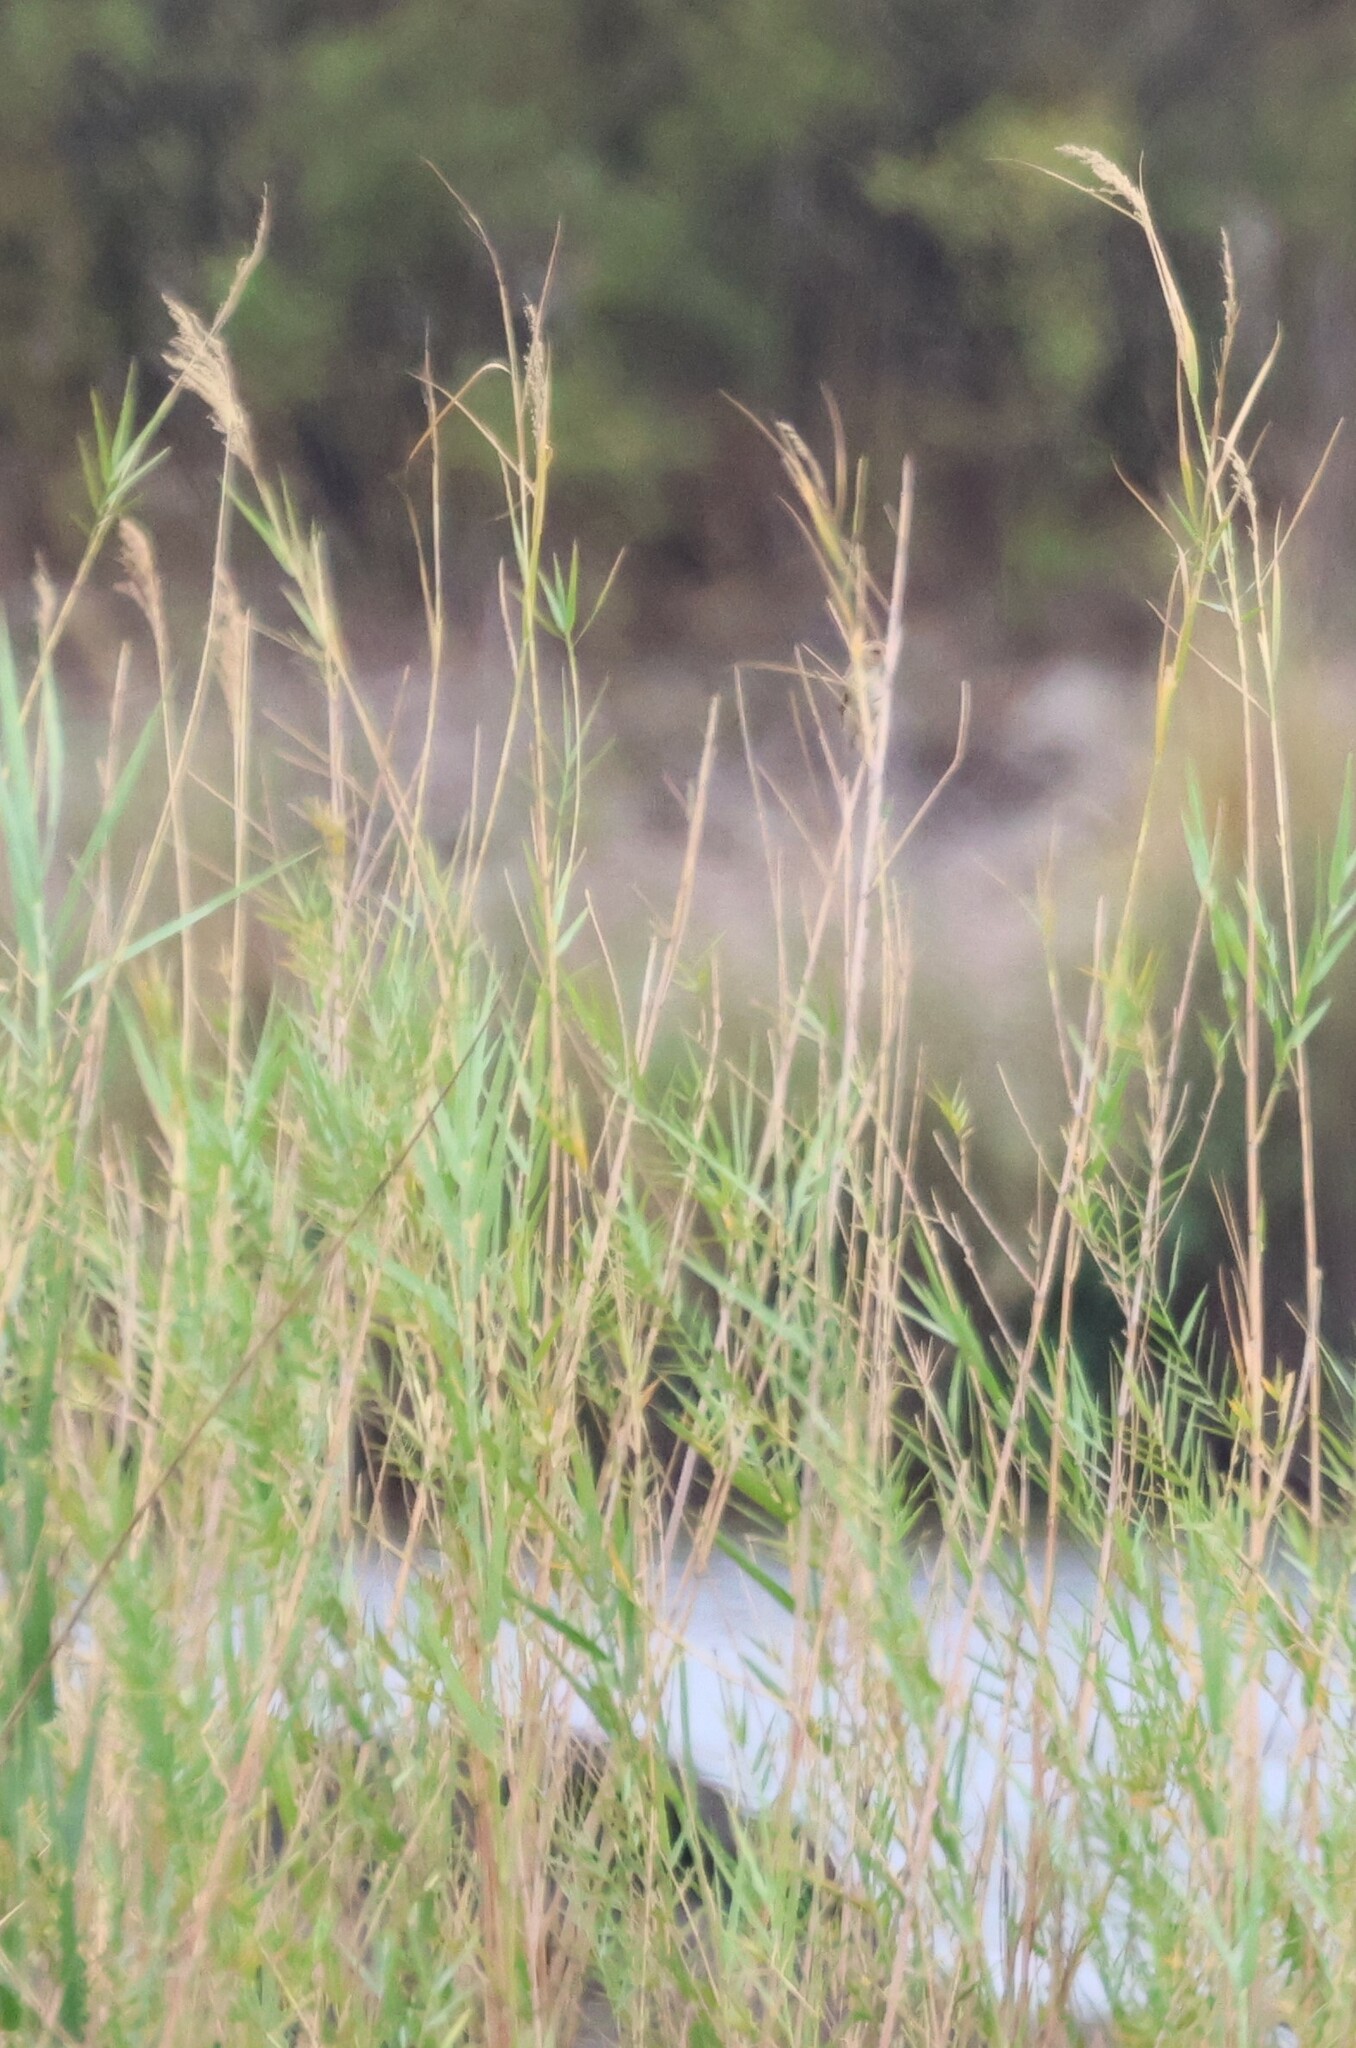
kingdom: Plantae
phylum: Tracheophyta
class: Liliopsida
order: Poales
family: Poaceae
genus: Phragmites
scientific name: Phragmites mauritianus
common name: Reed grass
